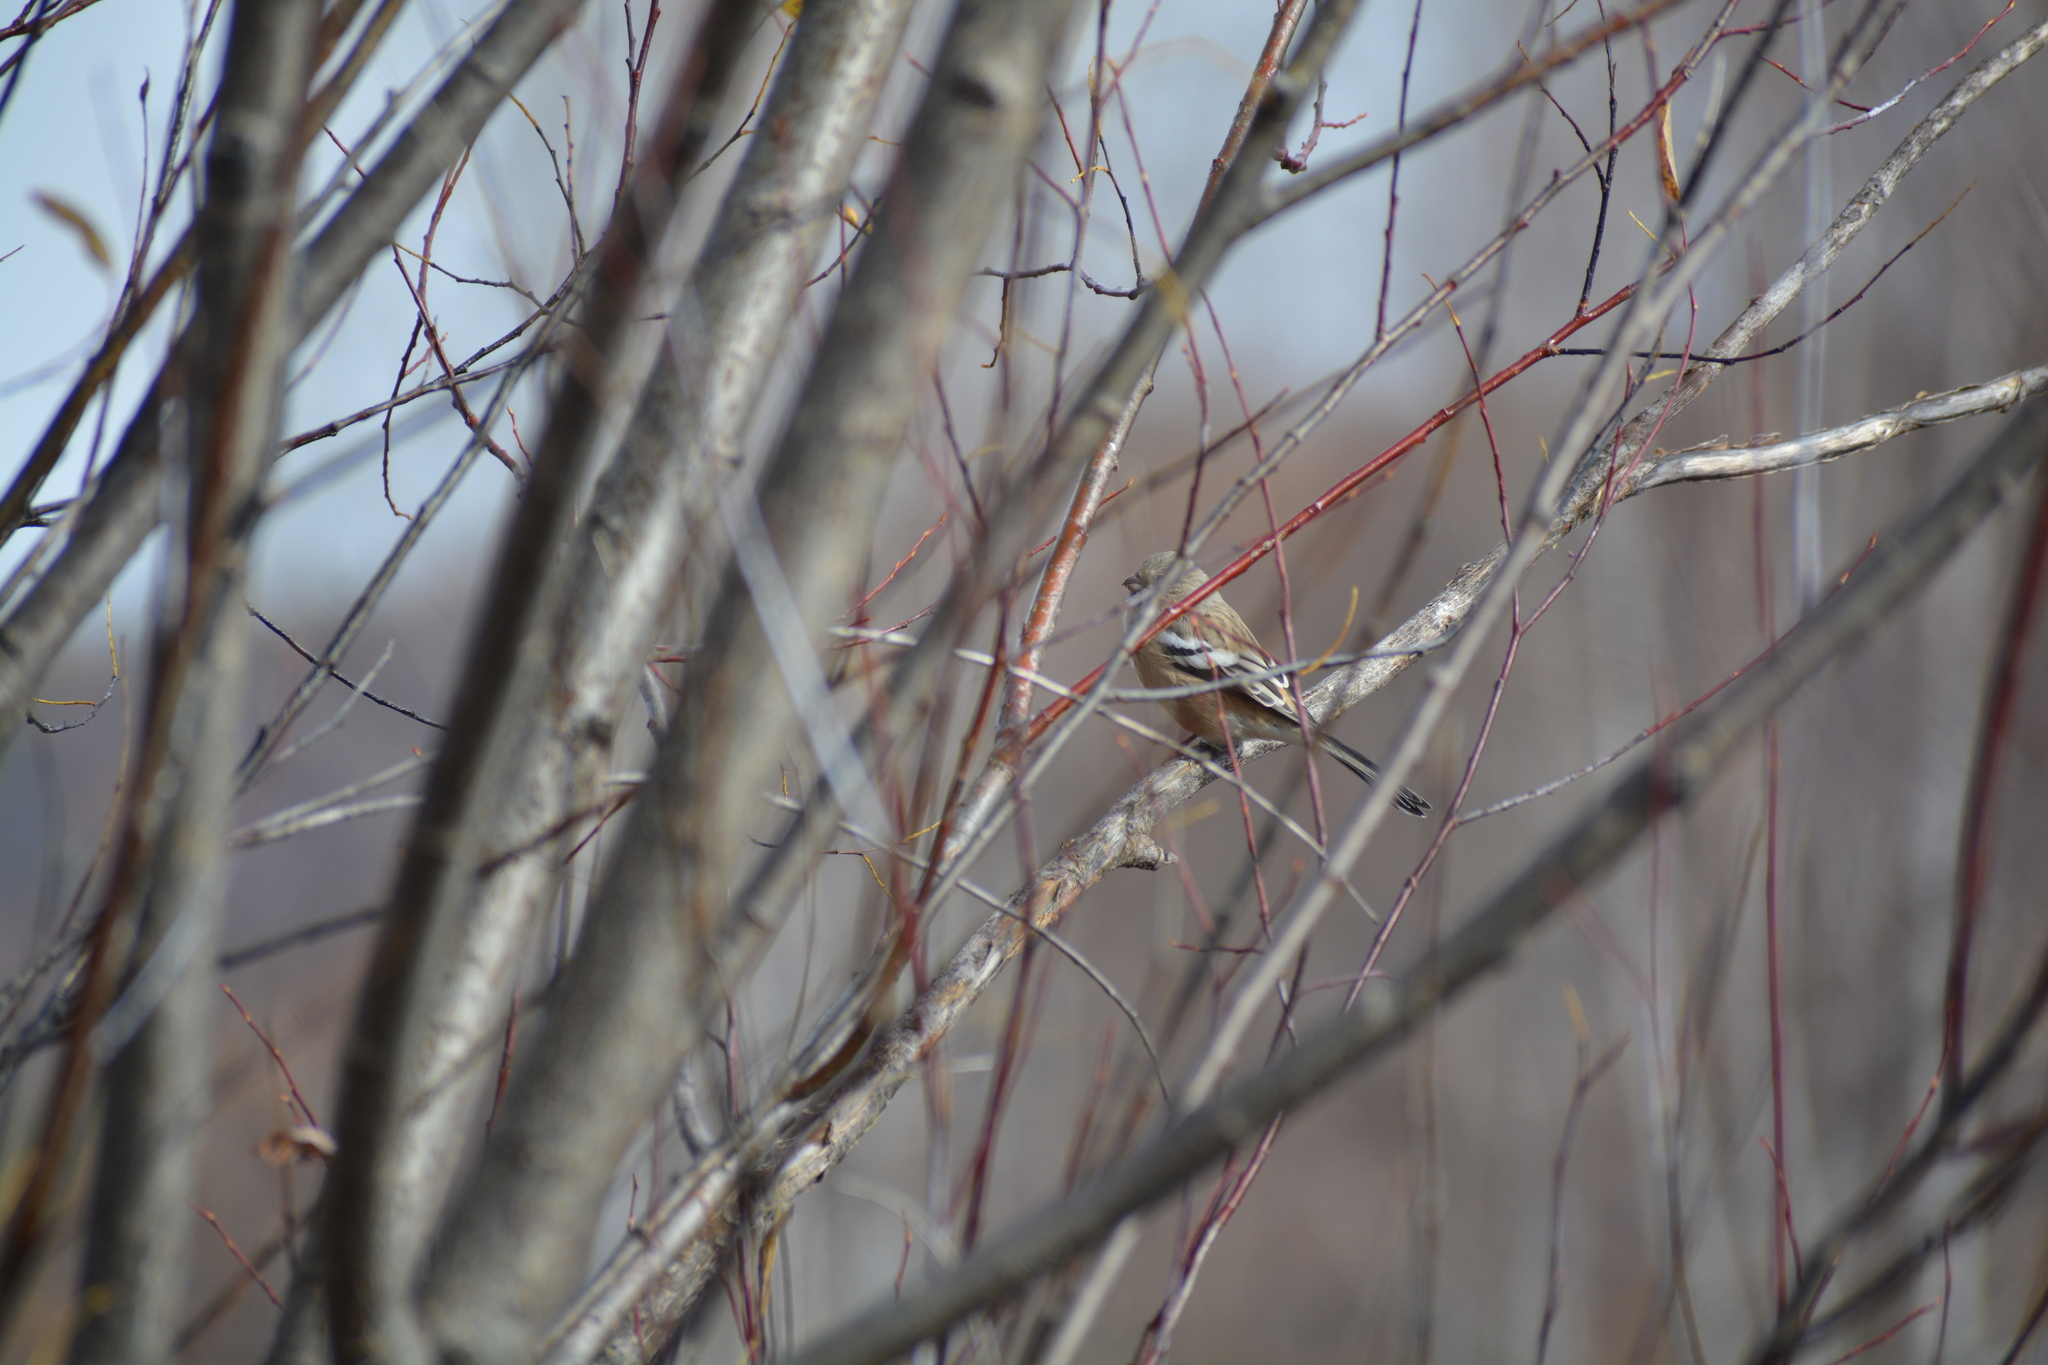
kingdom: Animalia
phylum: Chordata
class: Aves
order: Passeriformes
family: Fringillidae
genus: Carpodacus
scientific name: Carpodacus sibiricus
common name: Long-tailed rosefinch
